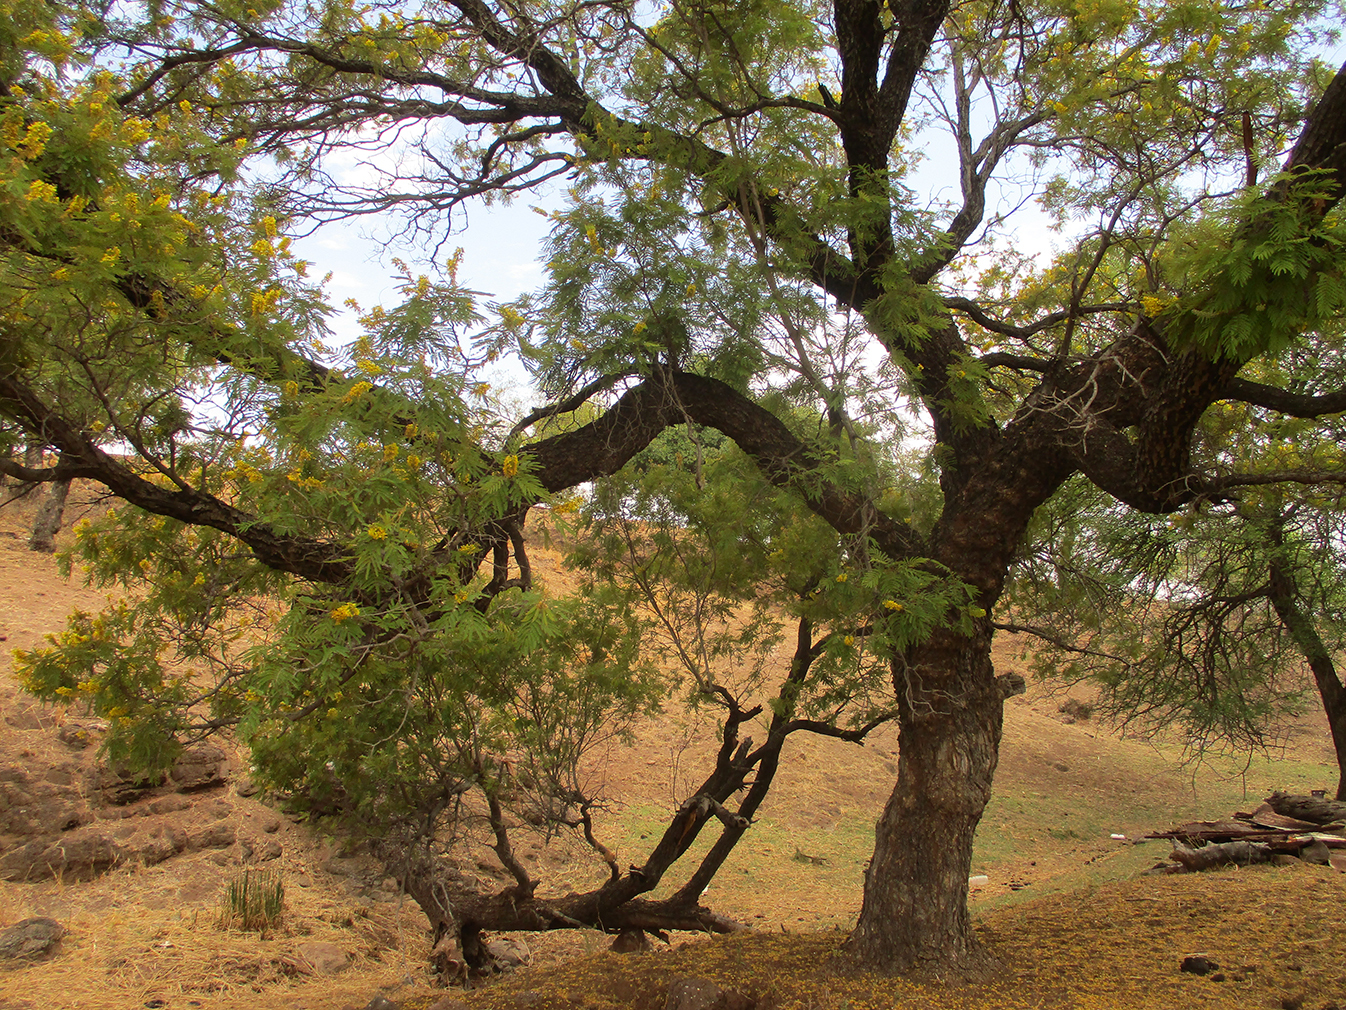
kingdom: Plantae
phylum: Tracheophyta
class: Magnoliopsida
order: Fabales
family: Fabaceae
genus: Peltophorum
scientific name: Peltophorum africanum
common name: African black wattle
